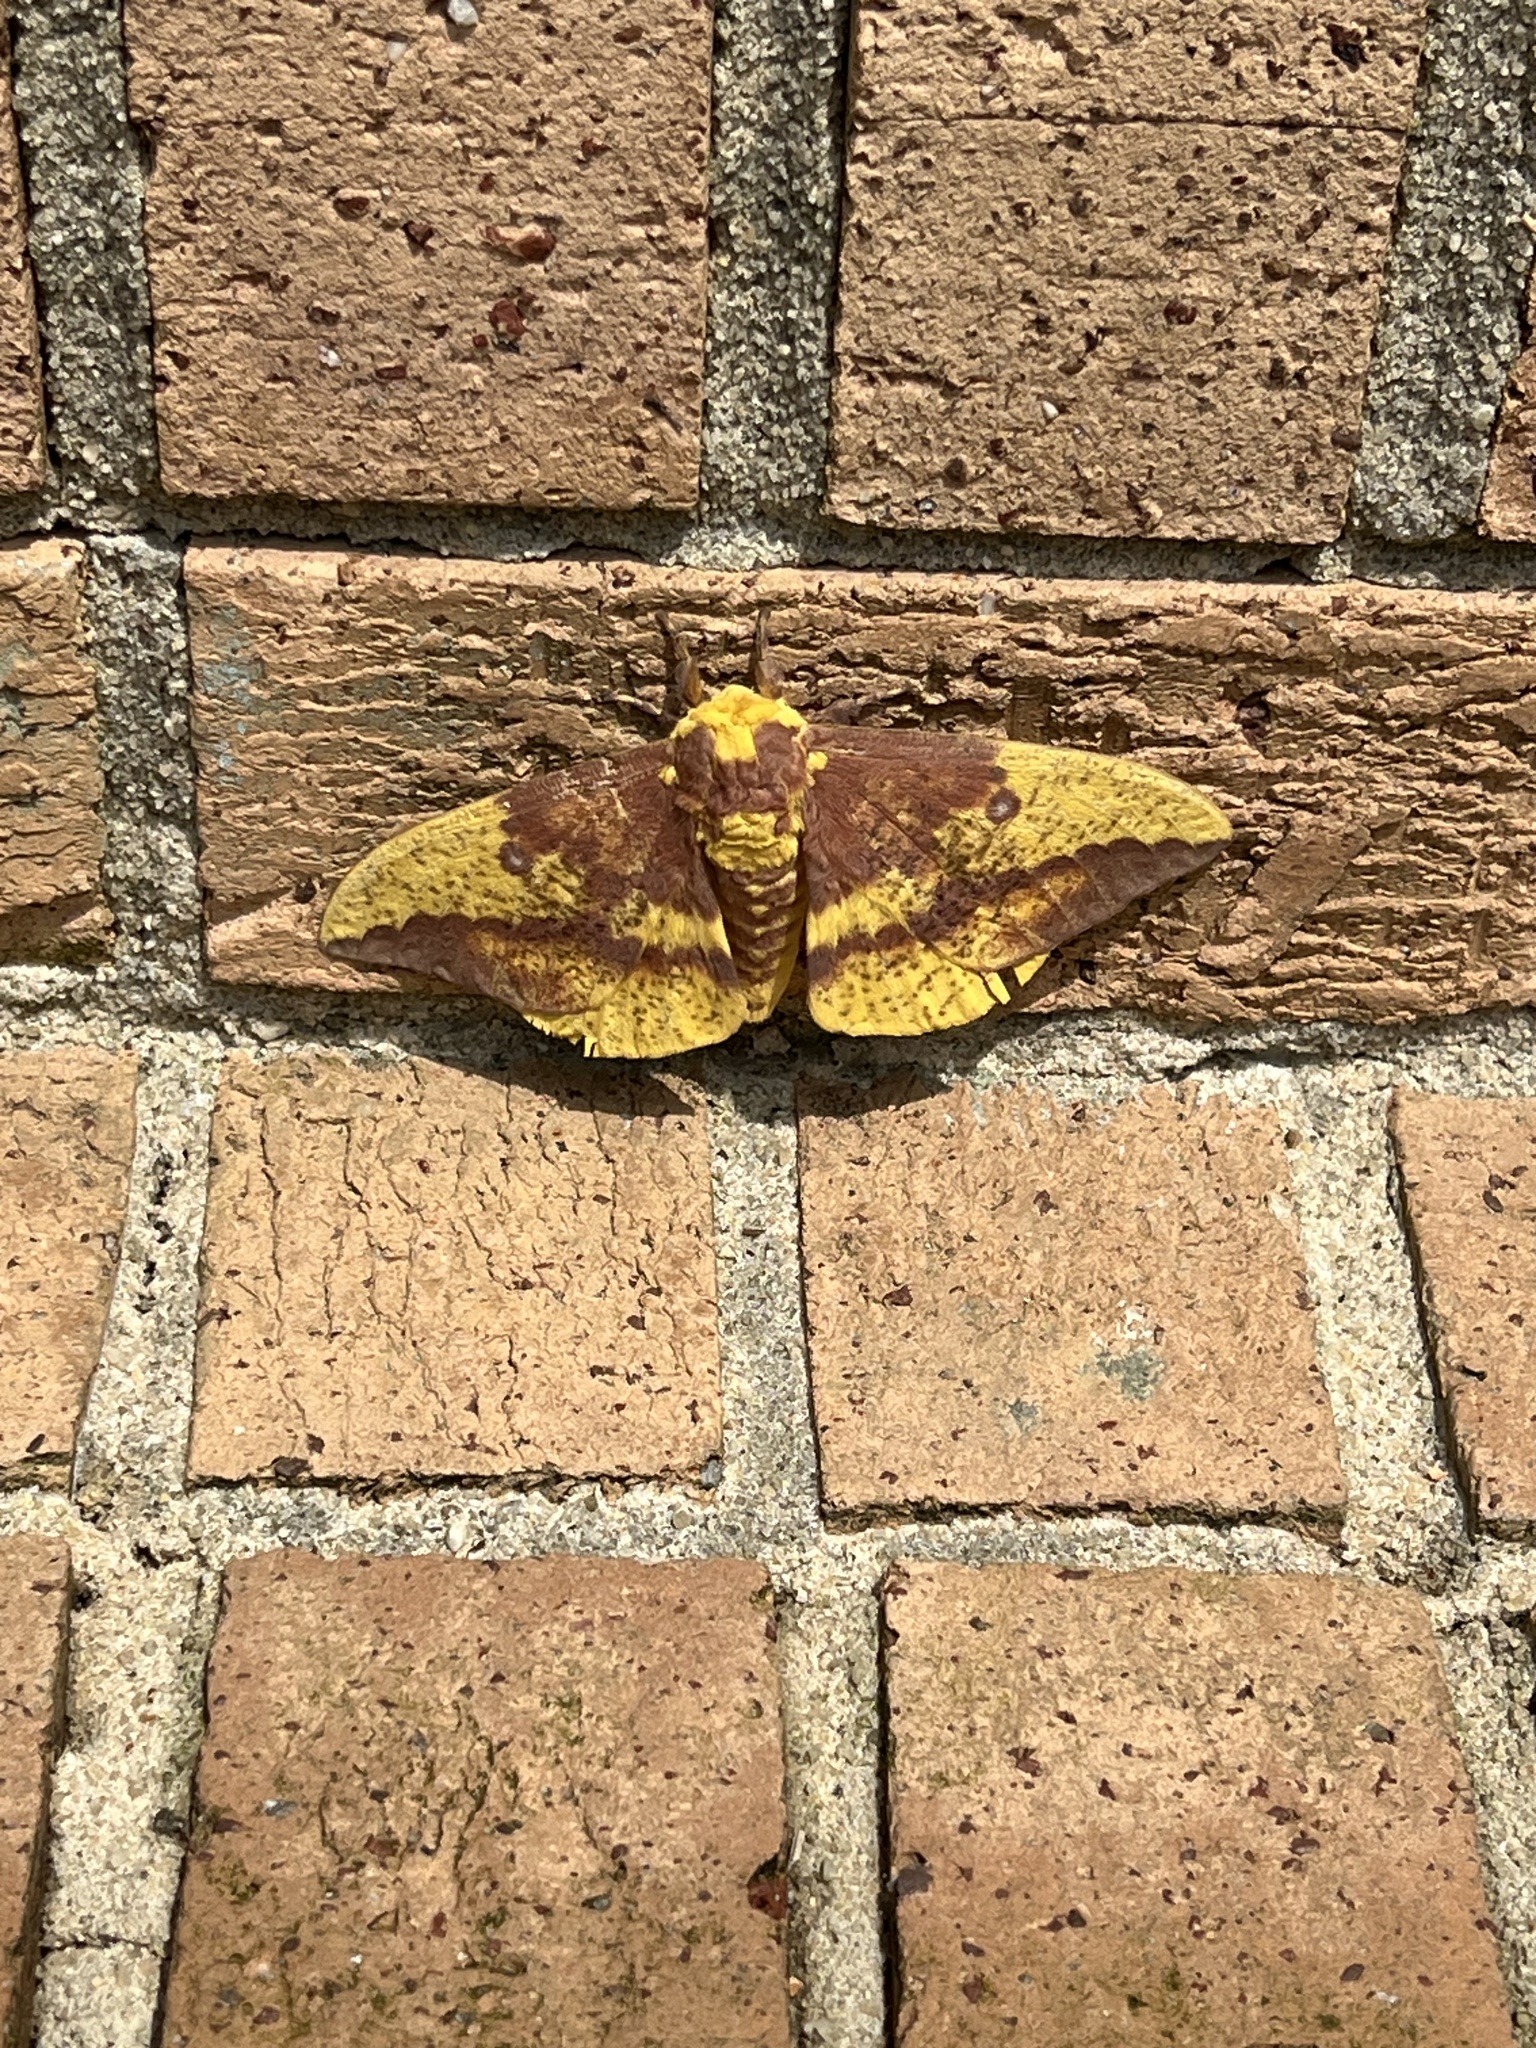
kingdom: Animalia
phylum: Arthropoda
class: Insecta
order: Lepidoptera
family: Saturniidae
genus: Eacles
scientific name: Eacles imperialis
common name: Imperial moth
